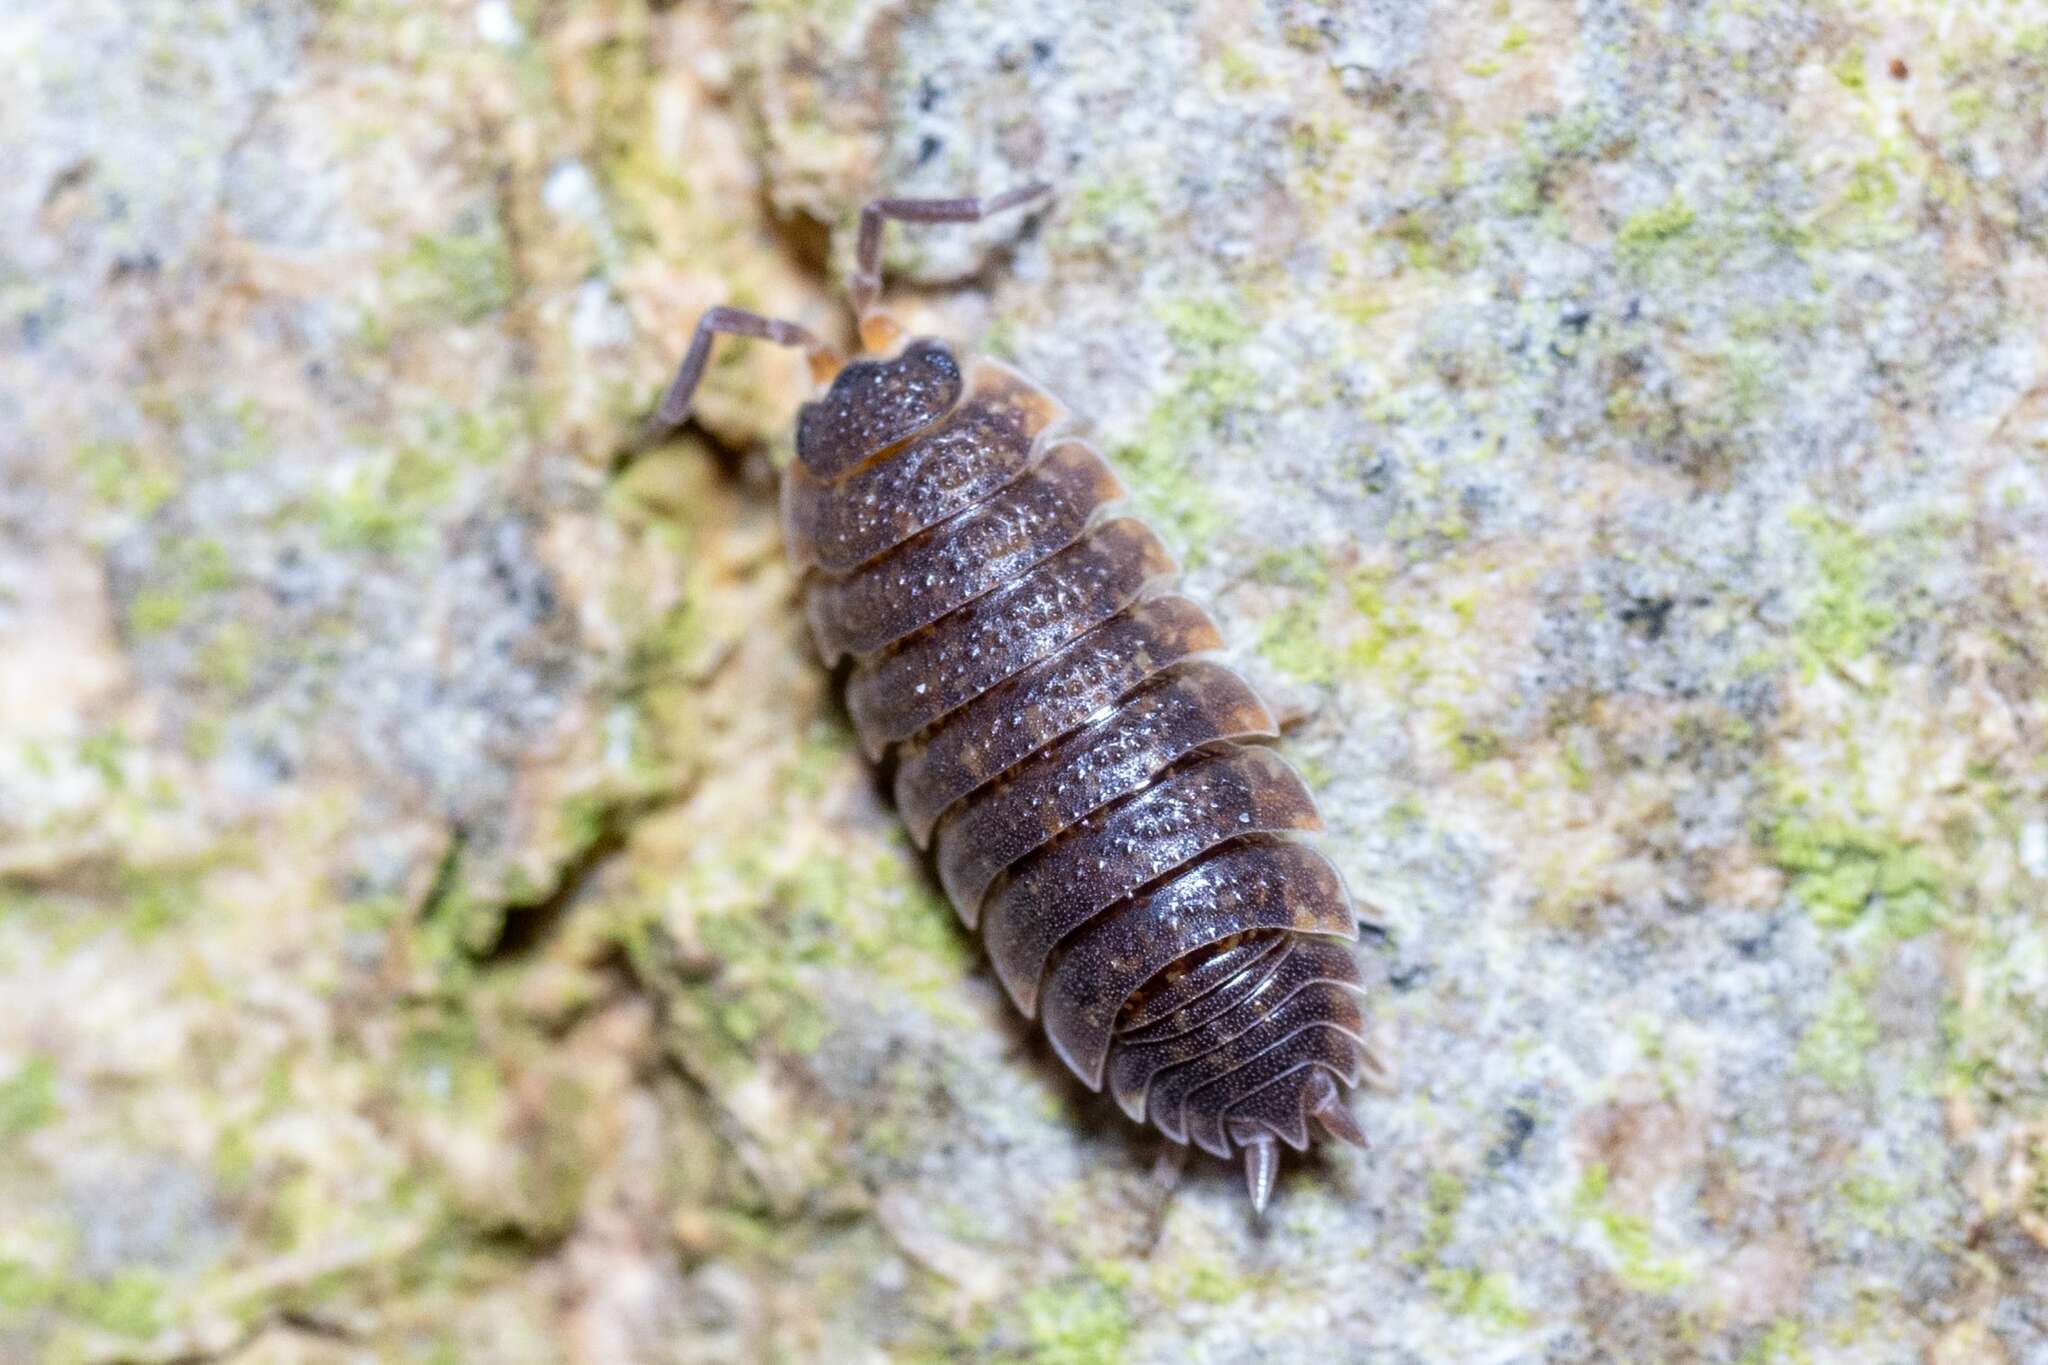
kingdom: Animalia
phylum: Arthropoda
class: Malacostraca
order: Isopoda
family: Porcellionidae
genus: Porcellio
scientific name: Porcellio scaber
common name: Common rough woodlouse
